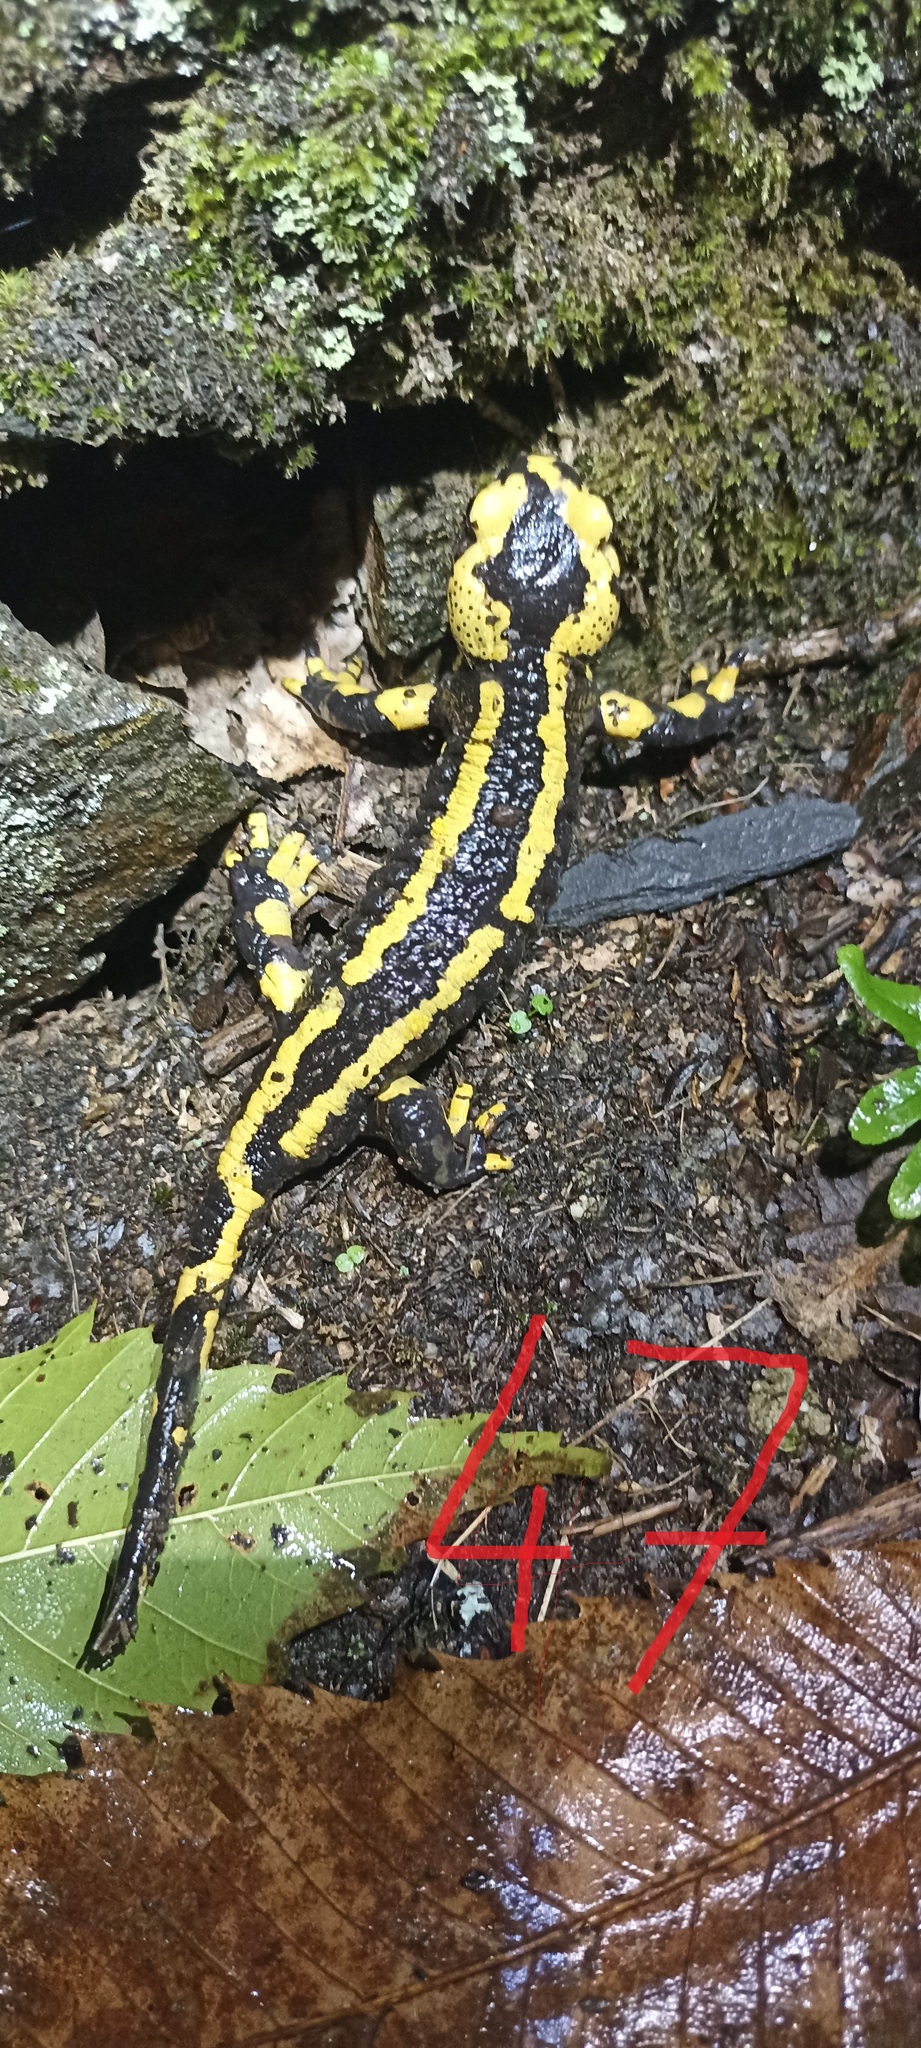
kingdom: Animalia
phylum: Chordata
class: Amphibia
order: Caudata
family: Salamandridae
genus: Salamandra
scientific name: Salamandra salamandra
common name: Fire salamander
